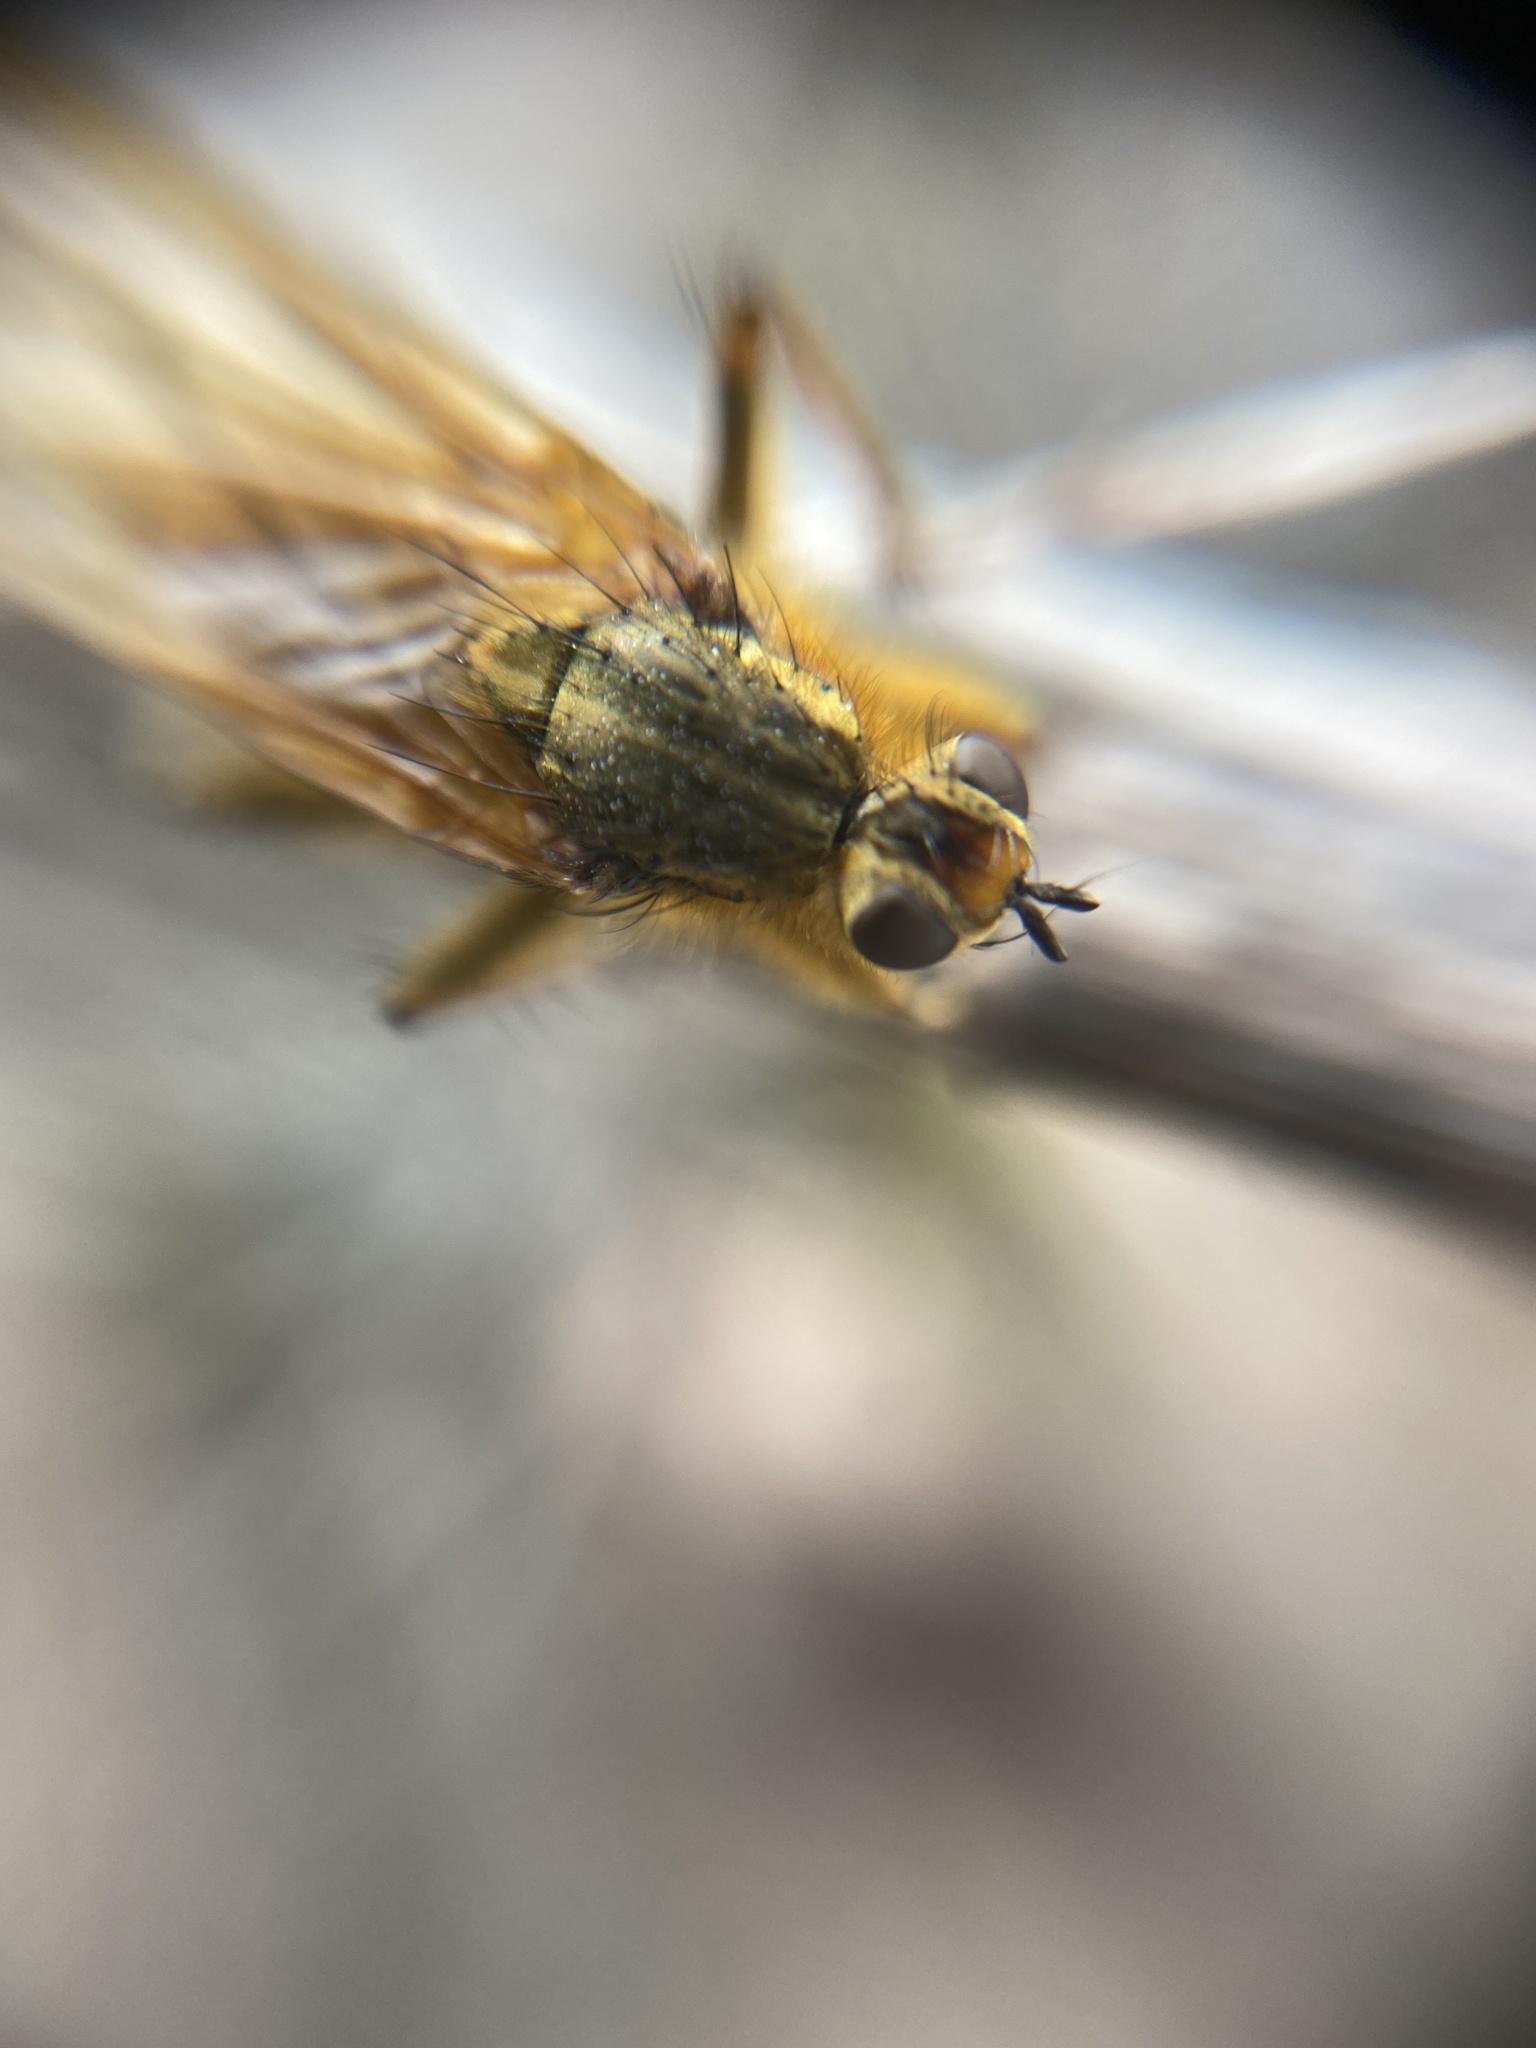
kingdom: Animalia
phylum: Arthropoda
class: Insecta
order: Diptera
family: Scathophagidae
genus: Scathophaga
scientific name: Scathophaga stercoraria
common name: Yellow dung fly
